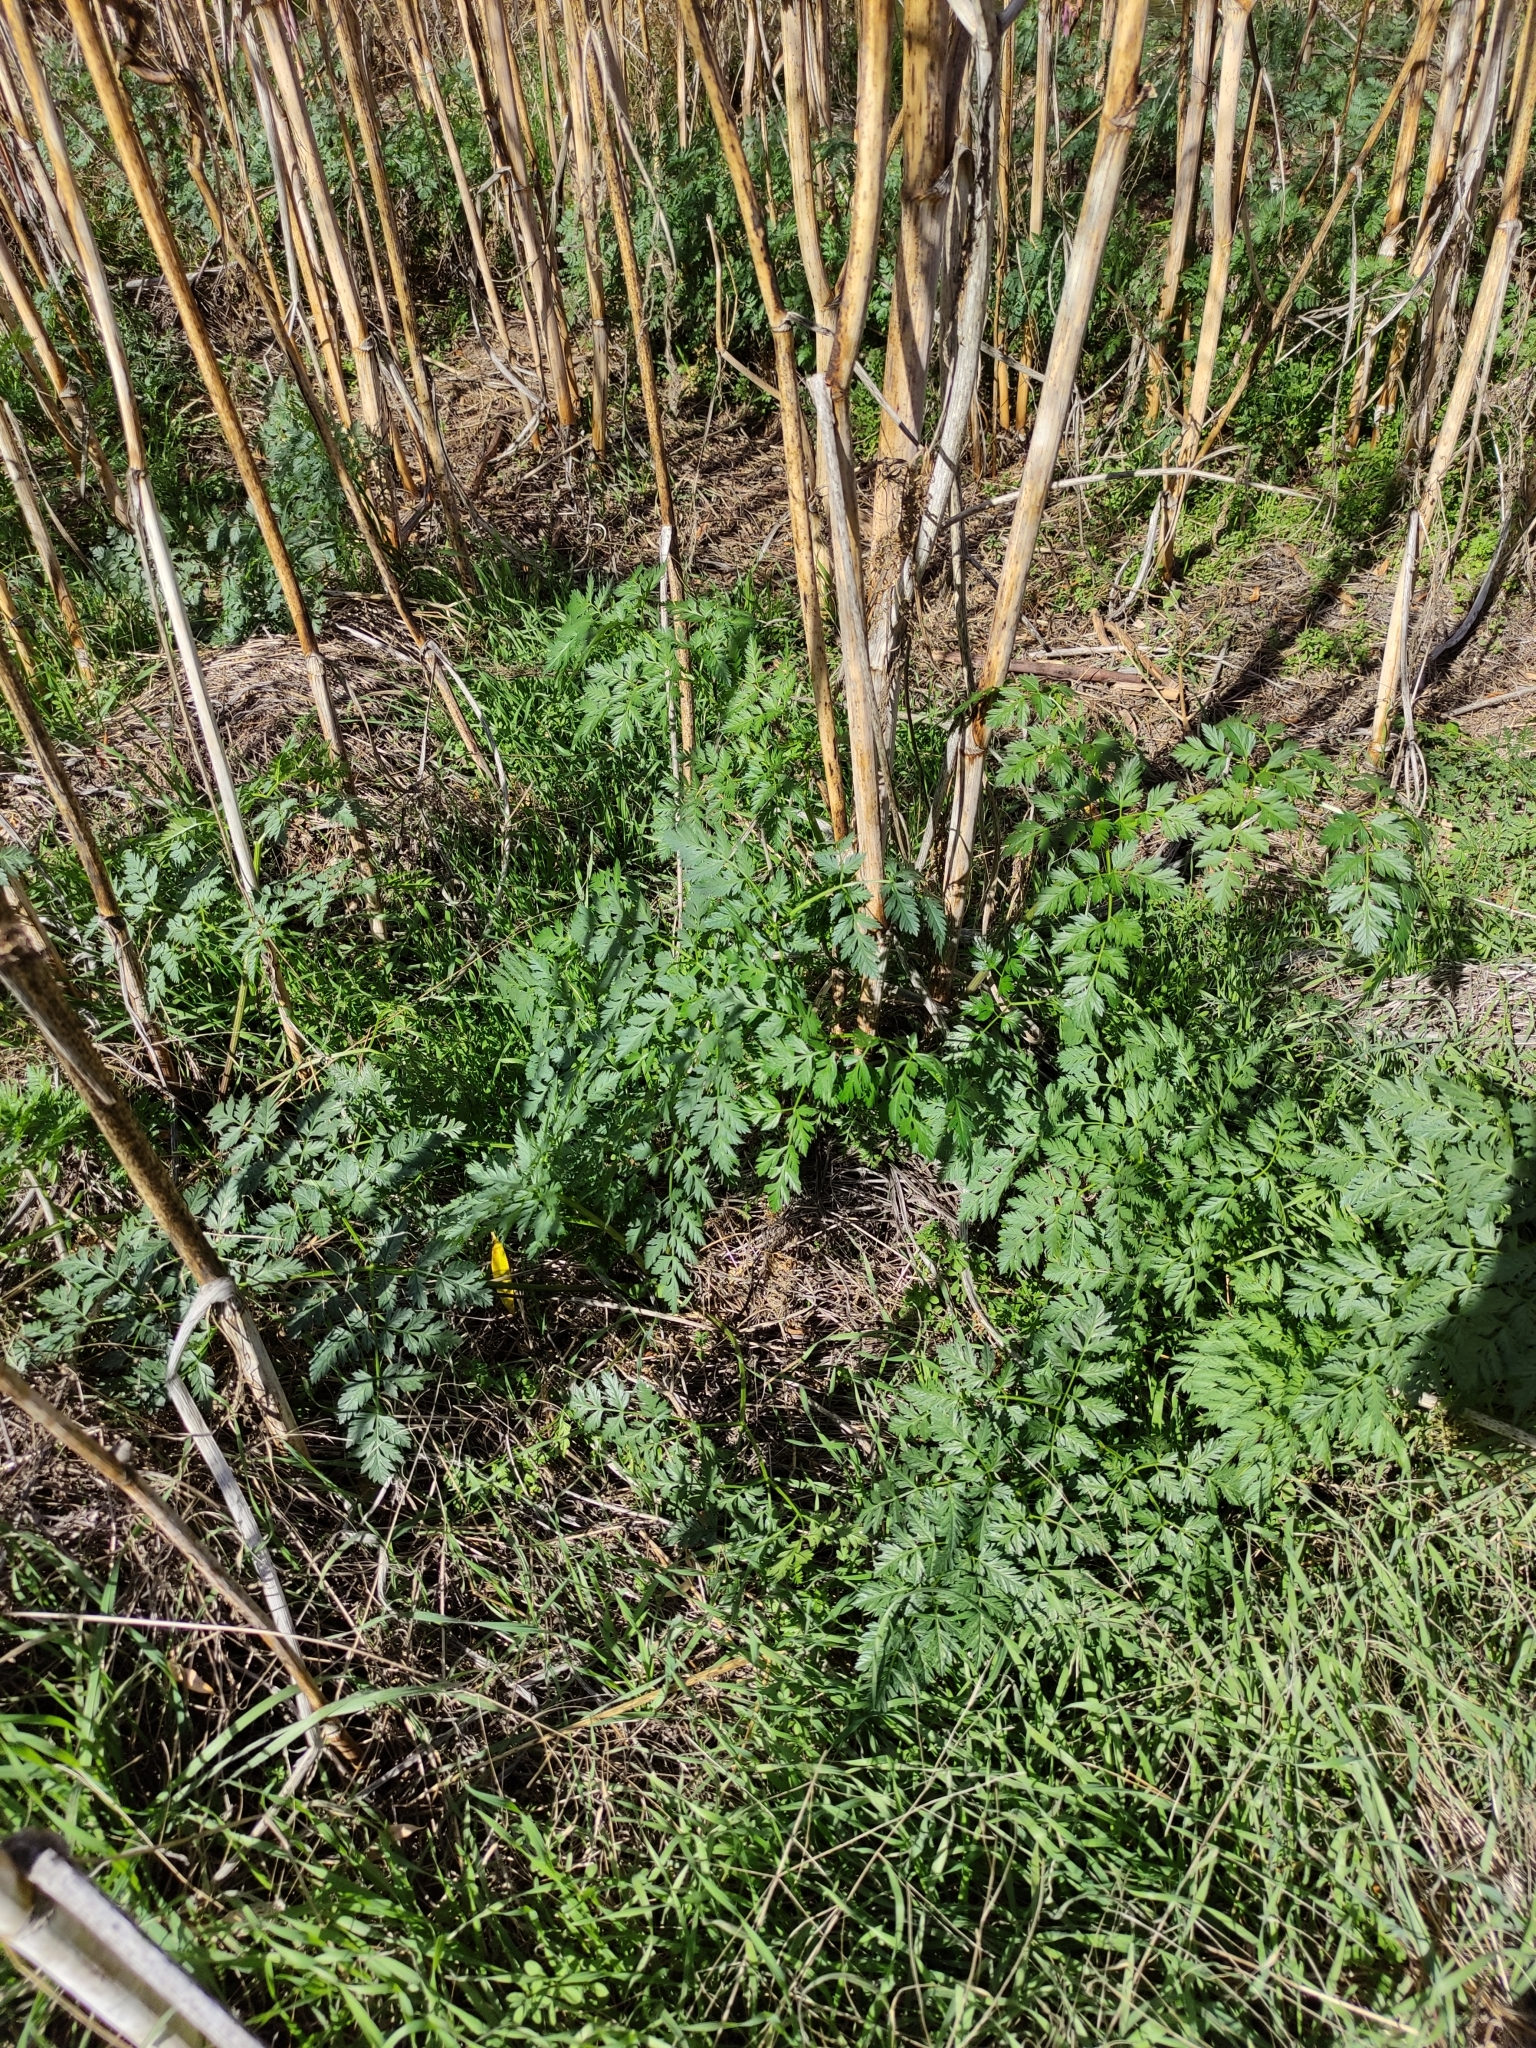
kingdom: Plantae
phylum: Tracheophyta
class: Magnoliopsida
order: Apiales
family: Apiaceae
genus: Conium
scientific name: Conium maculatum
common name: Hemlock
